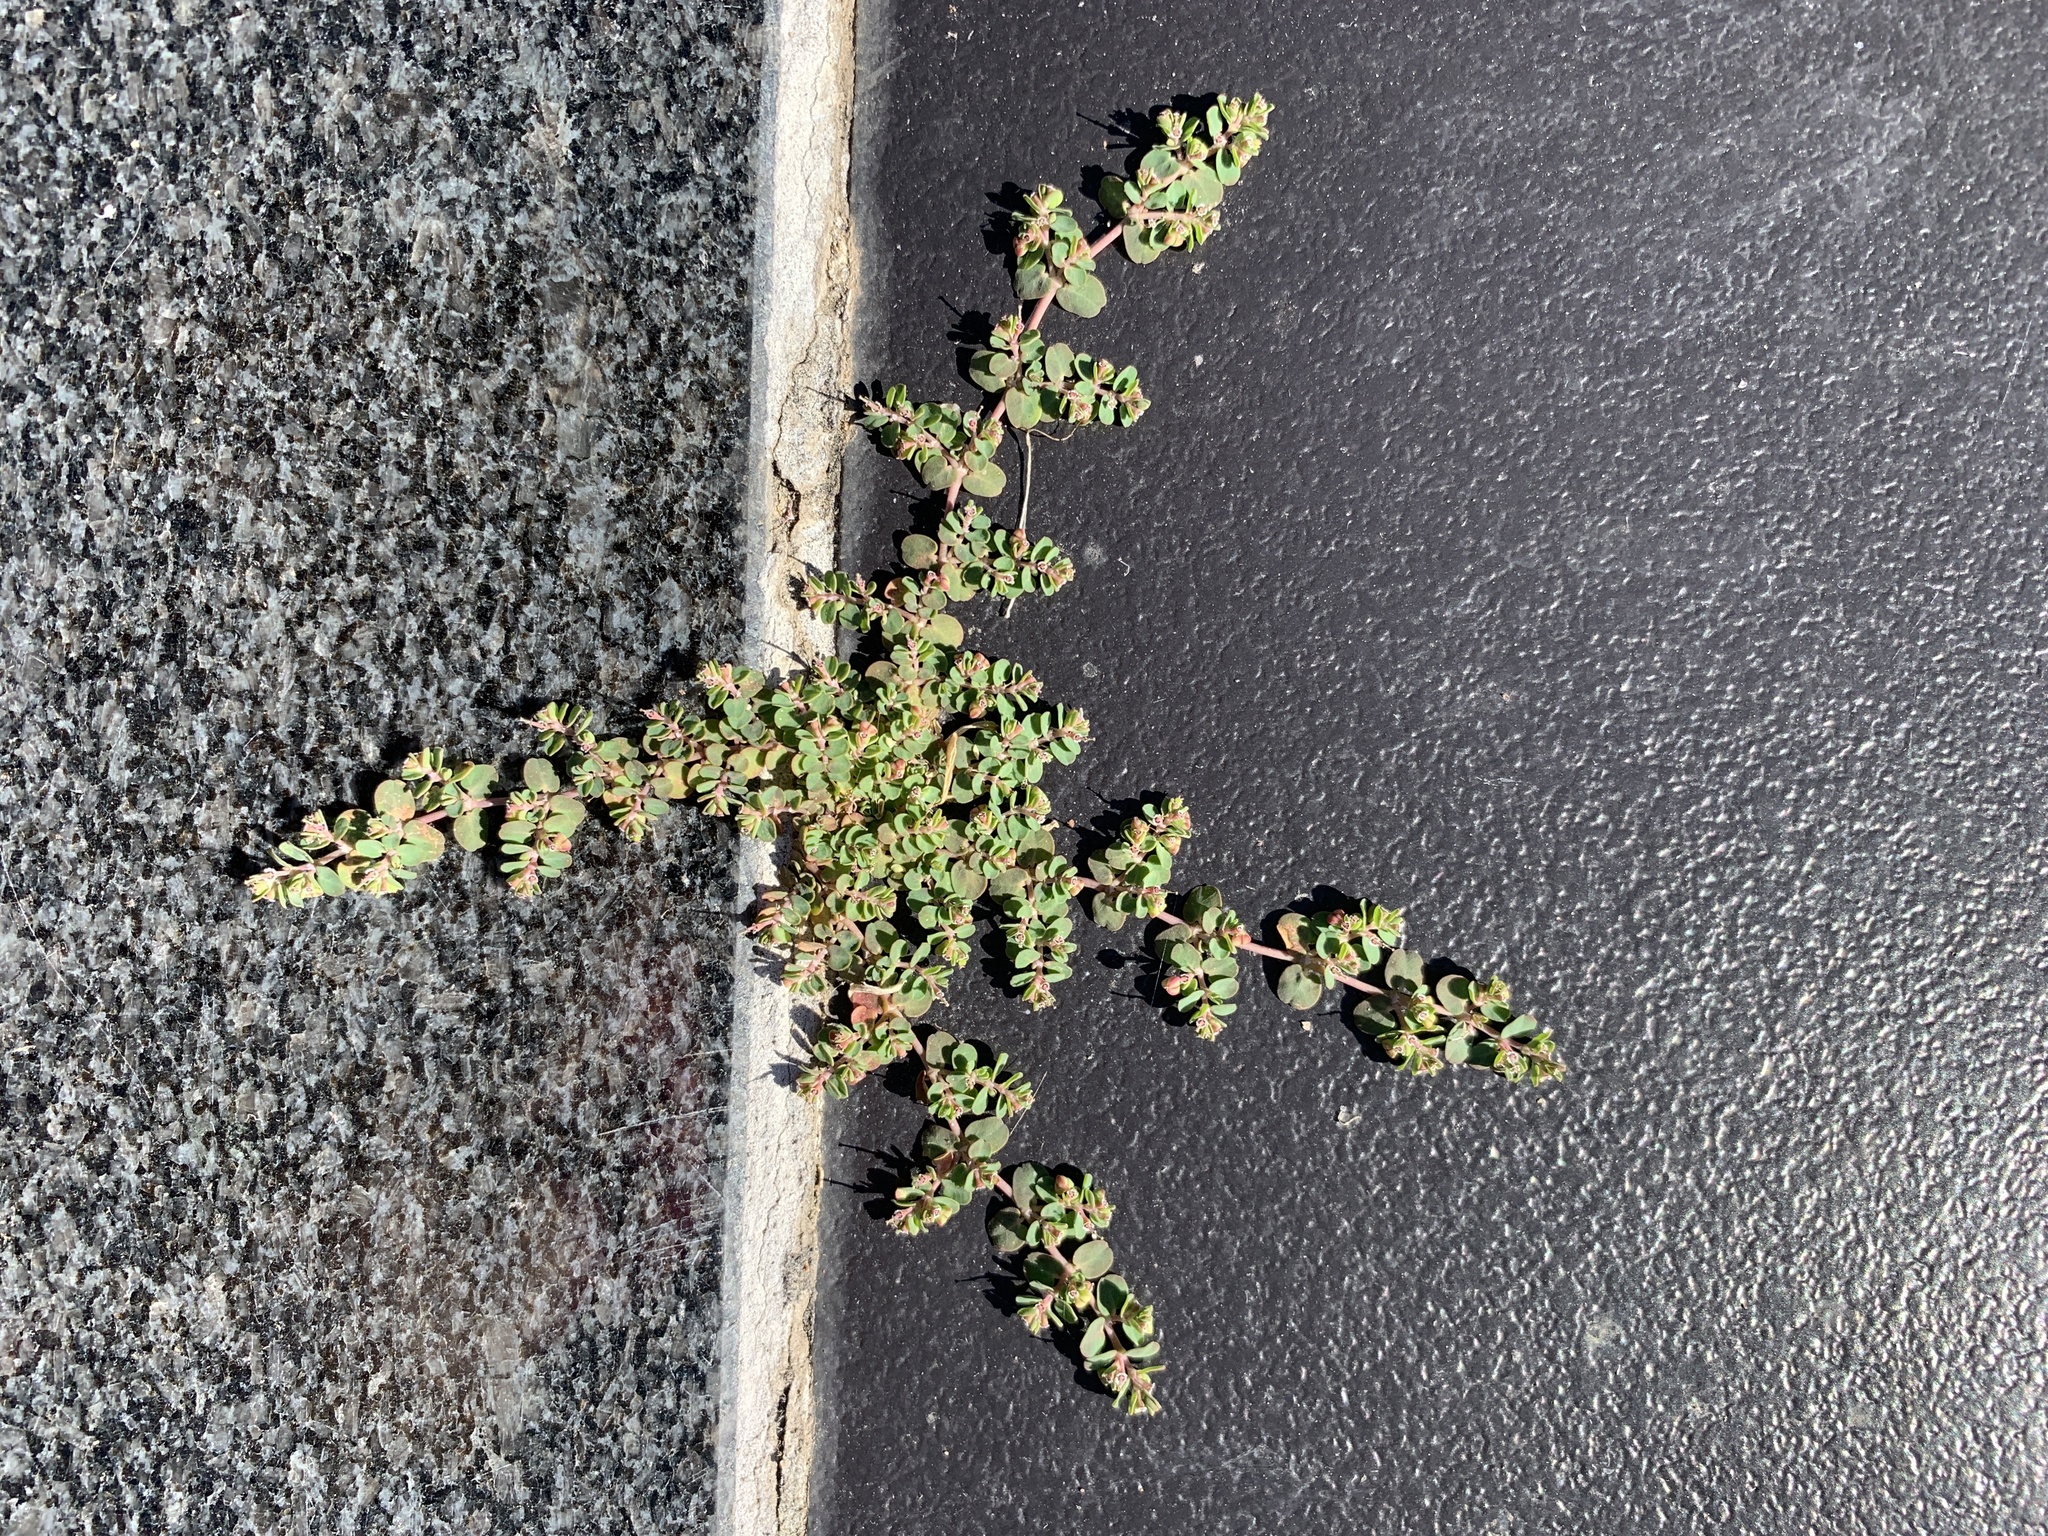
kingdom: Plantae
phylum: Tracheophyta
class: Magnoliopsida
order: Malpighiales
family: Euphorbiaceae
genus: Euphorbia
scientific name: Euphorbia serpens
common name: Matted sandmat
